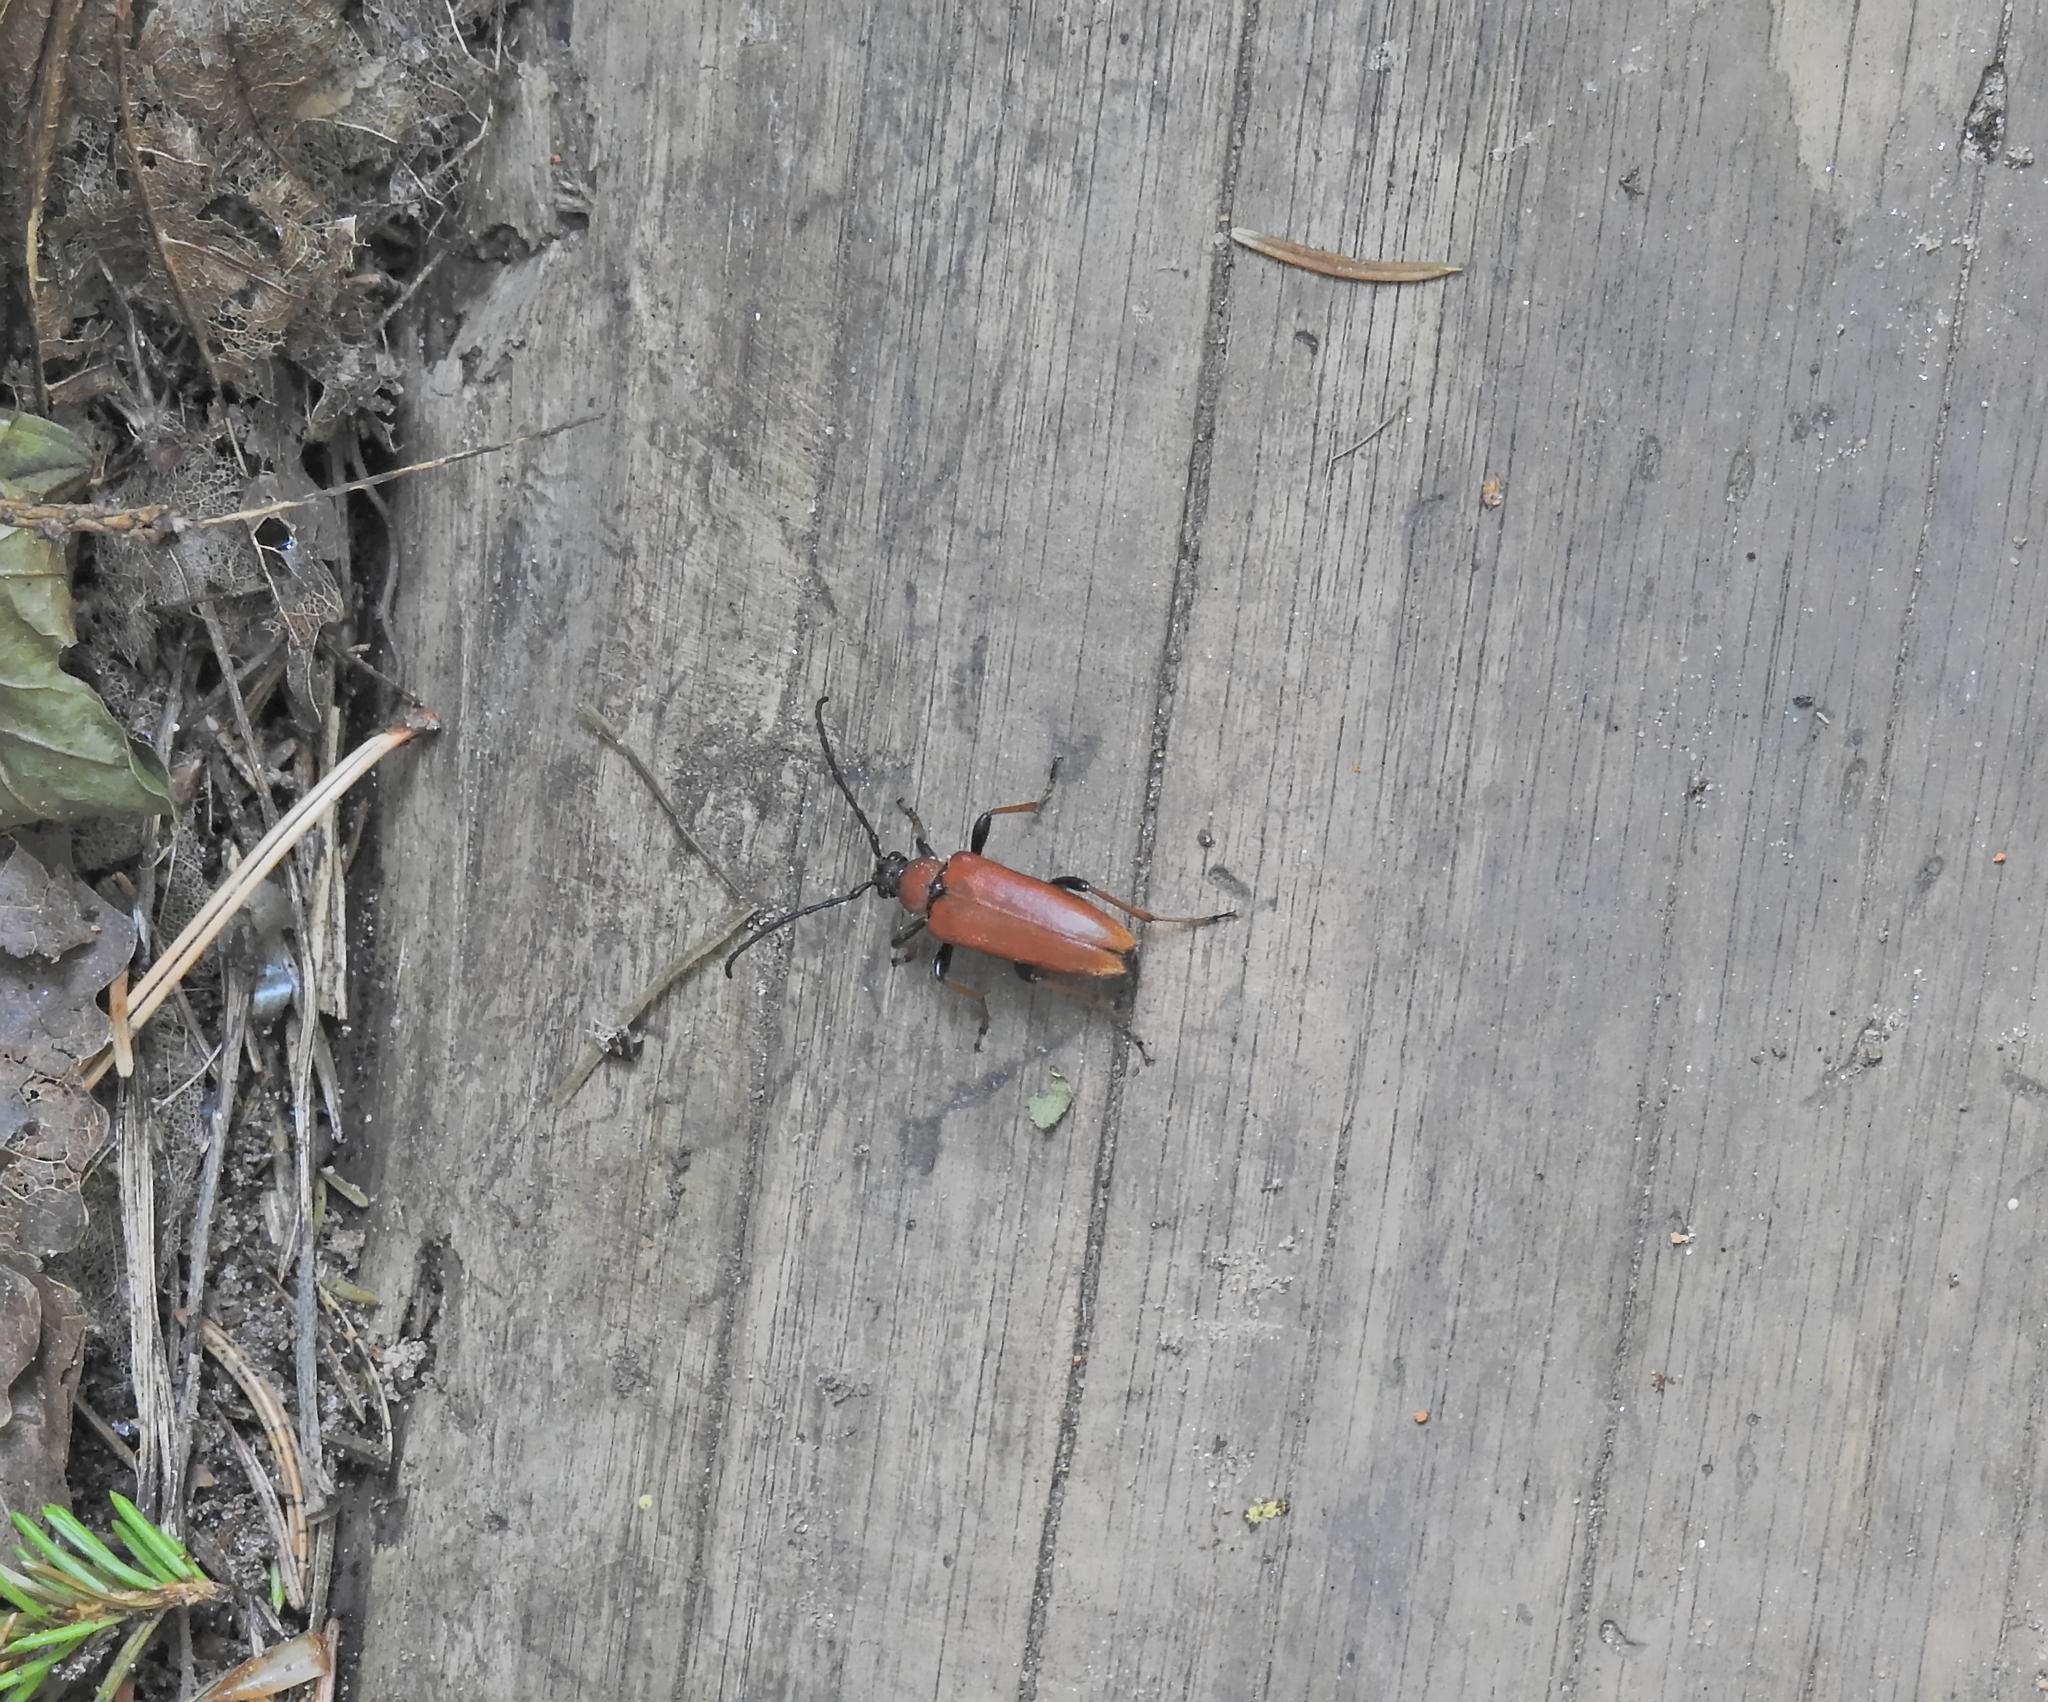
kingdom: Animalia
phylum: Arthropoda
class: Insecta
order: Coleoptera
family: Cerambycidae
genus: Stictoleptura
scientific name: Stictoleptura rubra
